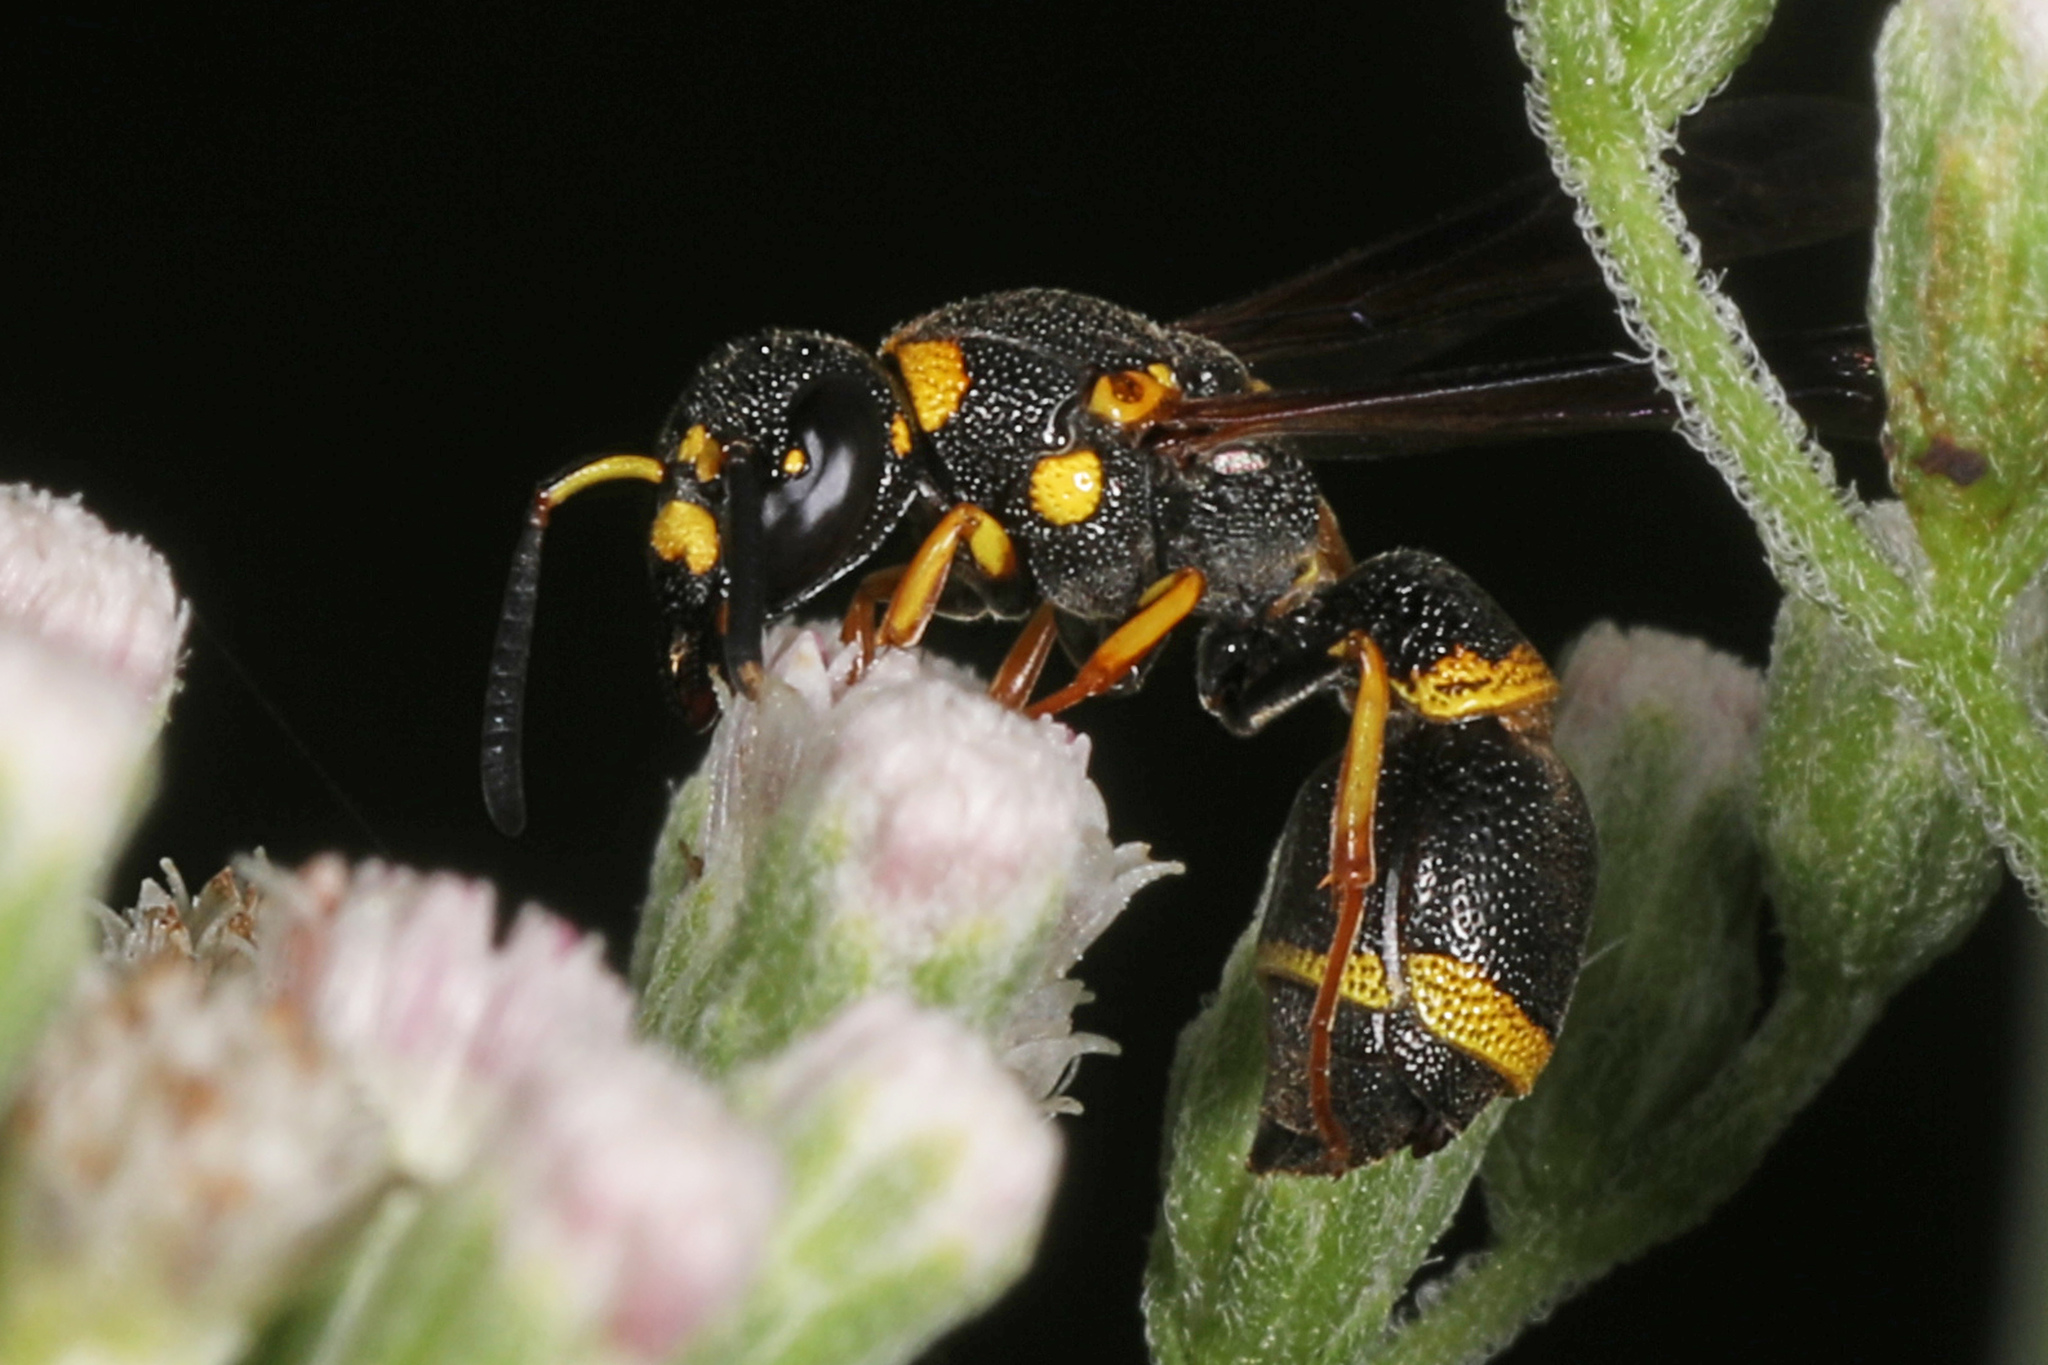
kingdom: Animalia
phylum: Arthropoda
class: Insecta
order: Hymenoptera
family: Eumenidae
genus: Parancistrocerus
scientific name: Parancistrocerus perennis
